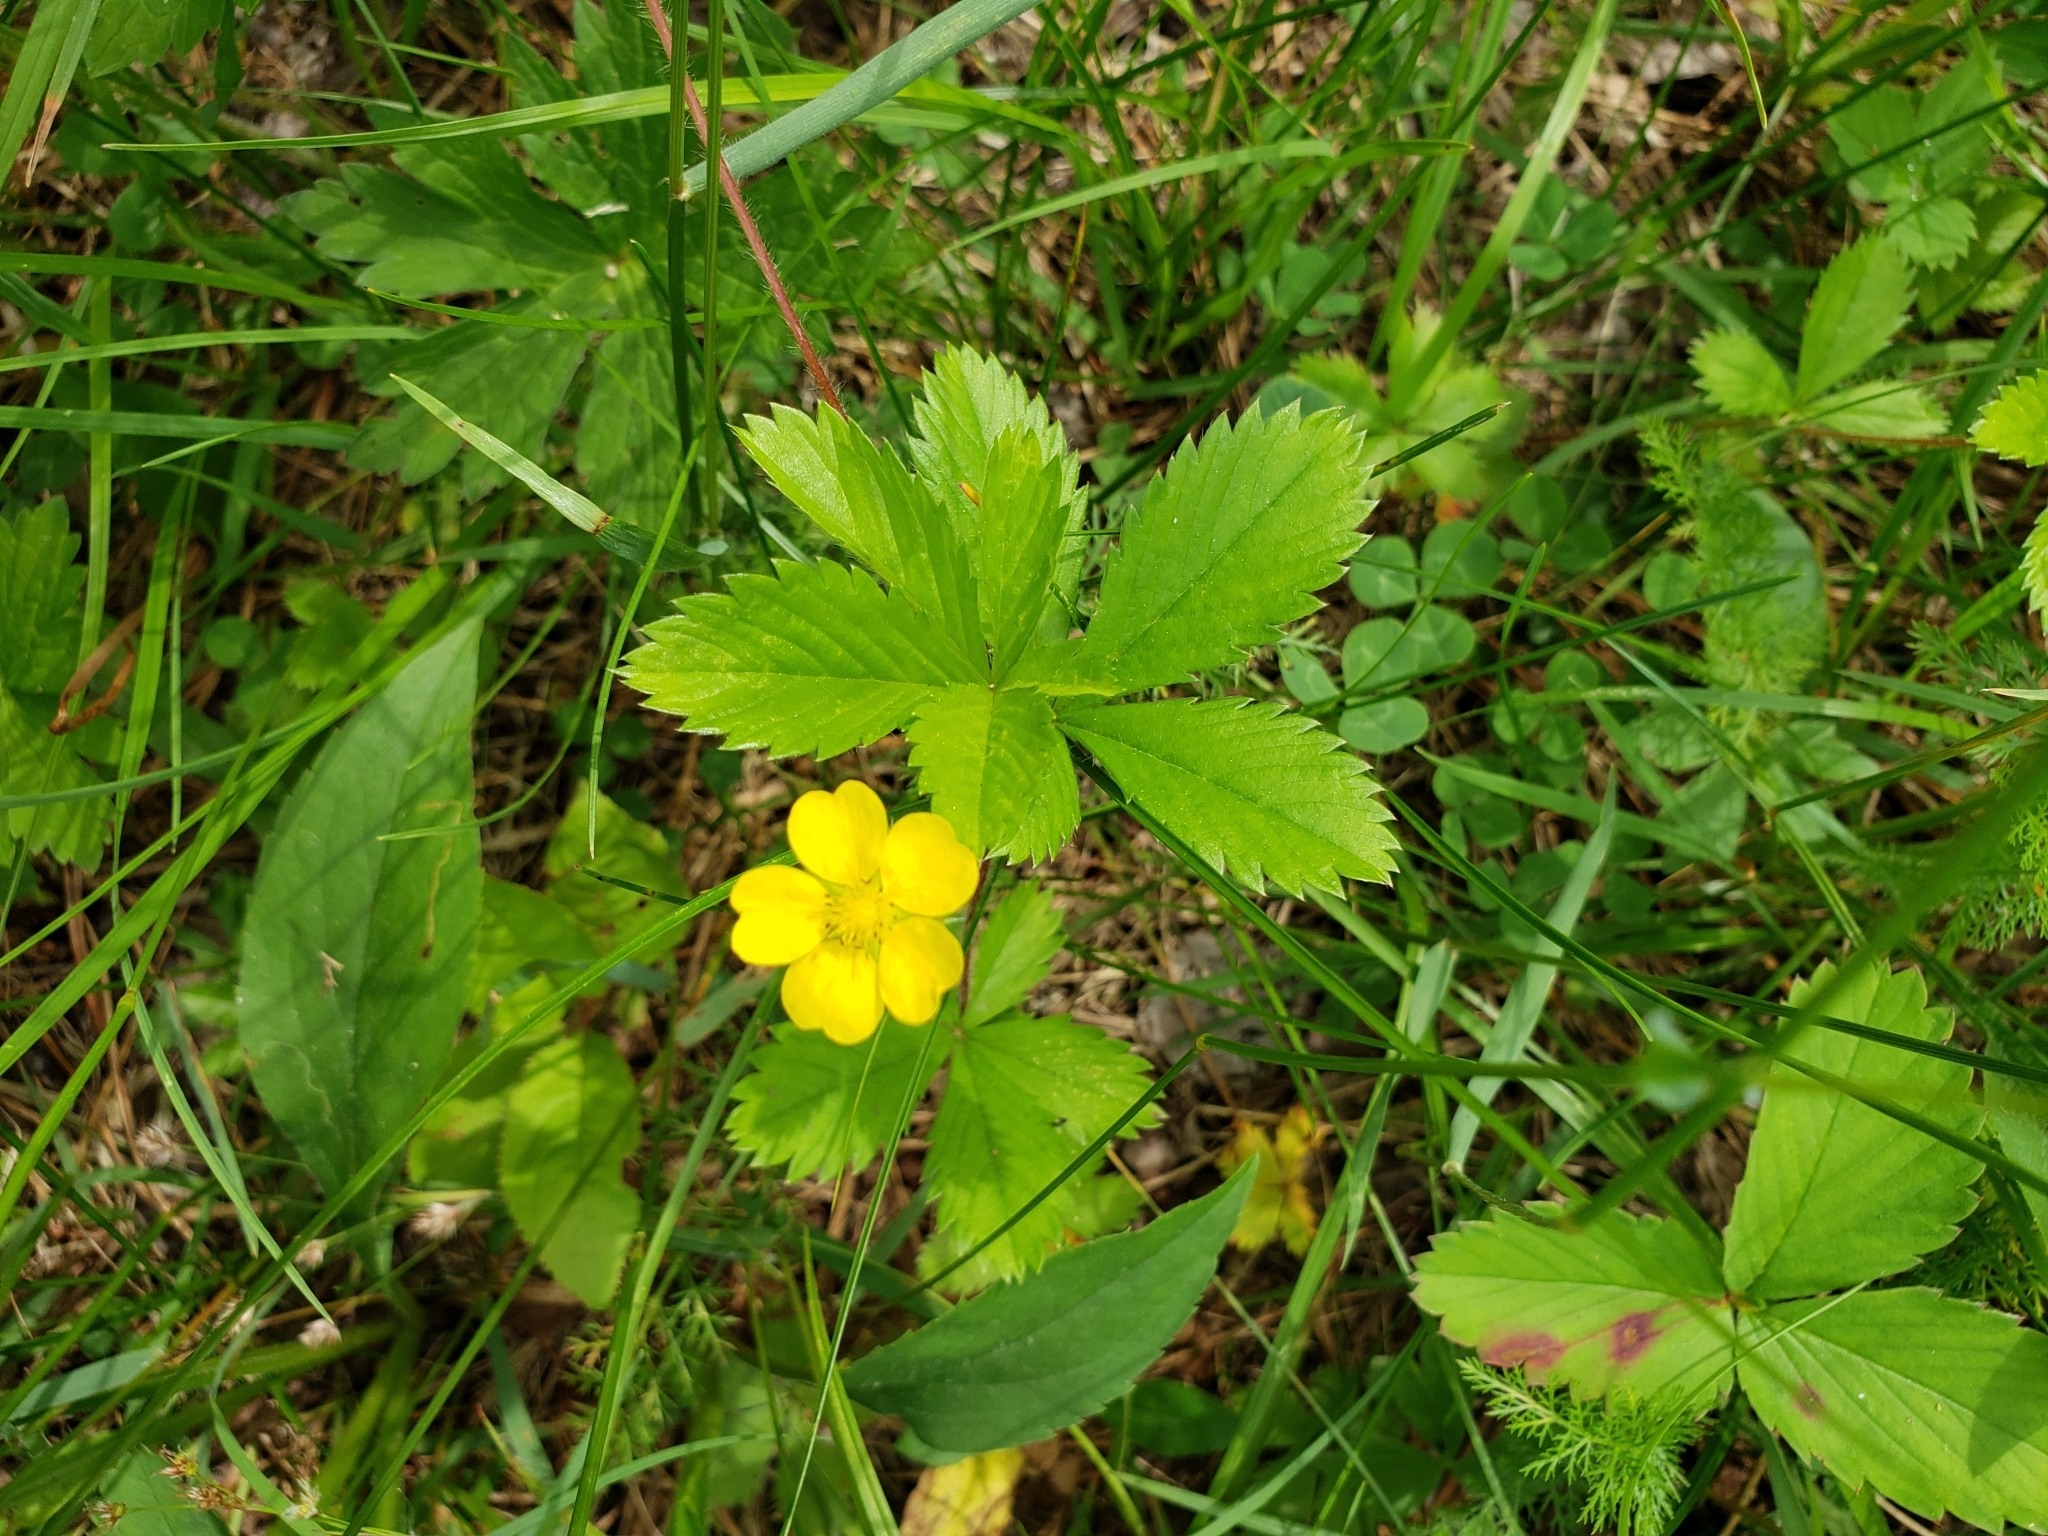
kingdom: Plantae
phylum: Tracheophyta
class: Magnoliopsida
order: Rosales
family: Rosaceae
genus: Potentilla
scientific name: Potentilla simplex
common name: Old field cinquefoil
